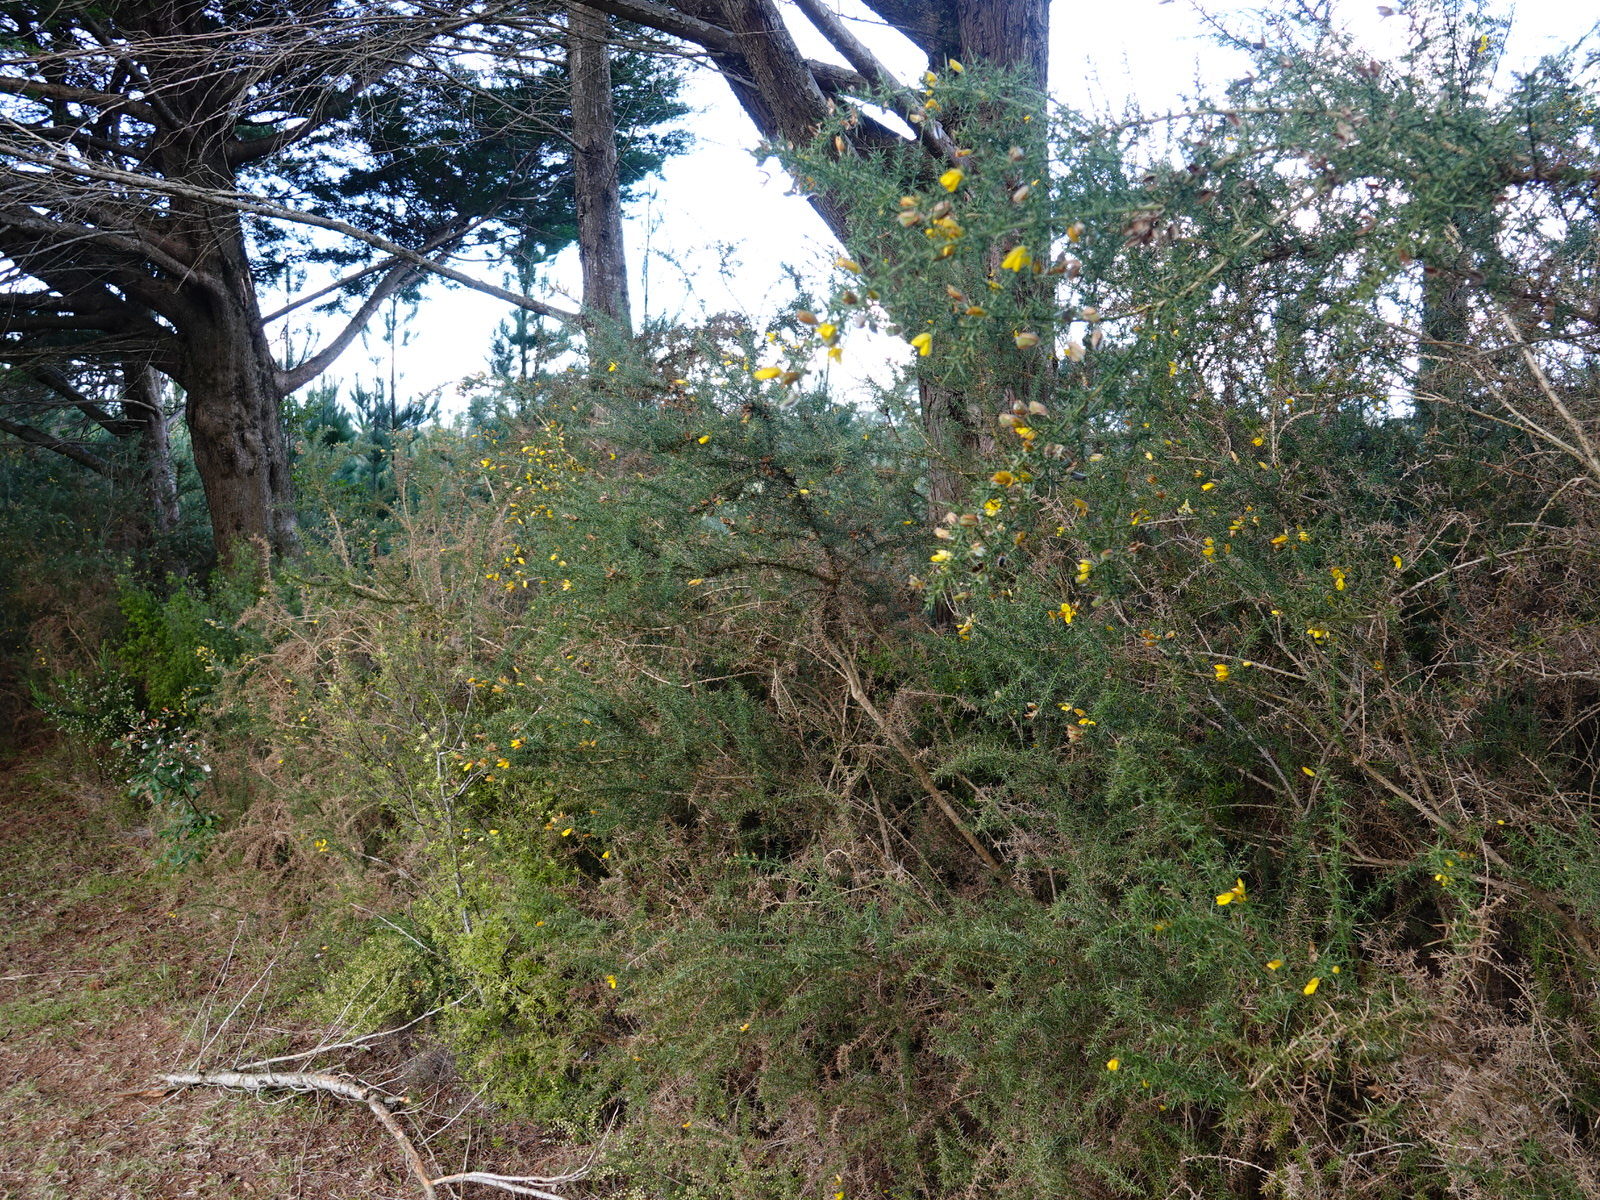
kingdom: Animalia
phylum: Arthropoda
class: Insecta
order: Coleoptera
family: Brentidae
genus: Exapion
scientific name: Exapion ulicis
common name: Gorse seed weevil
